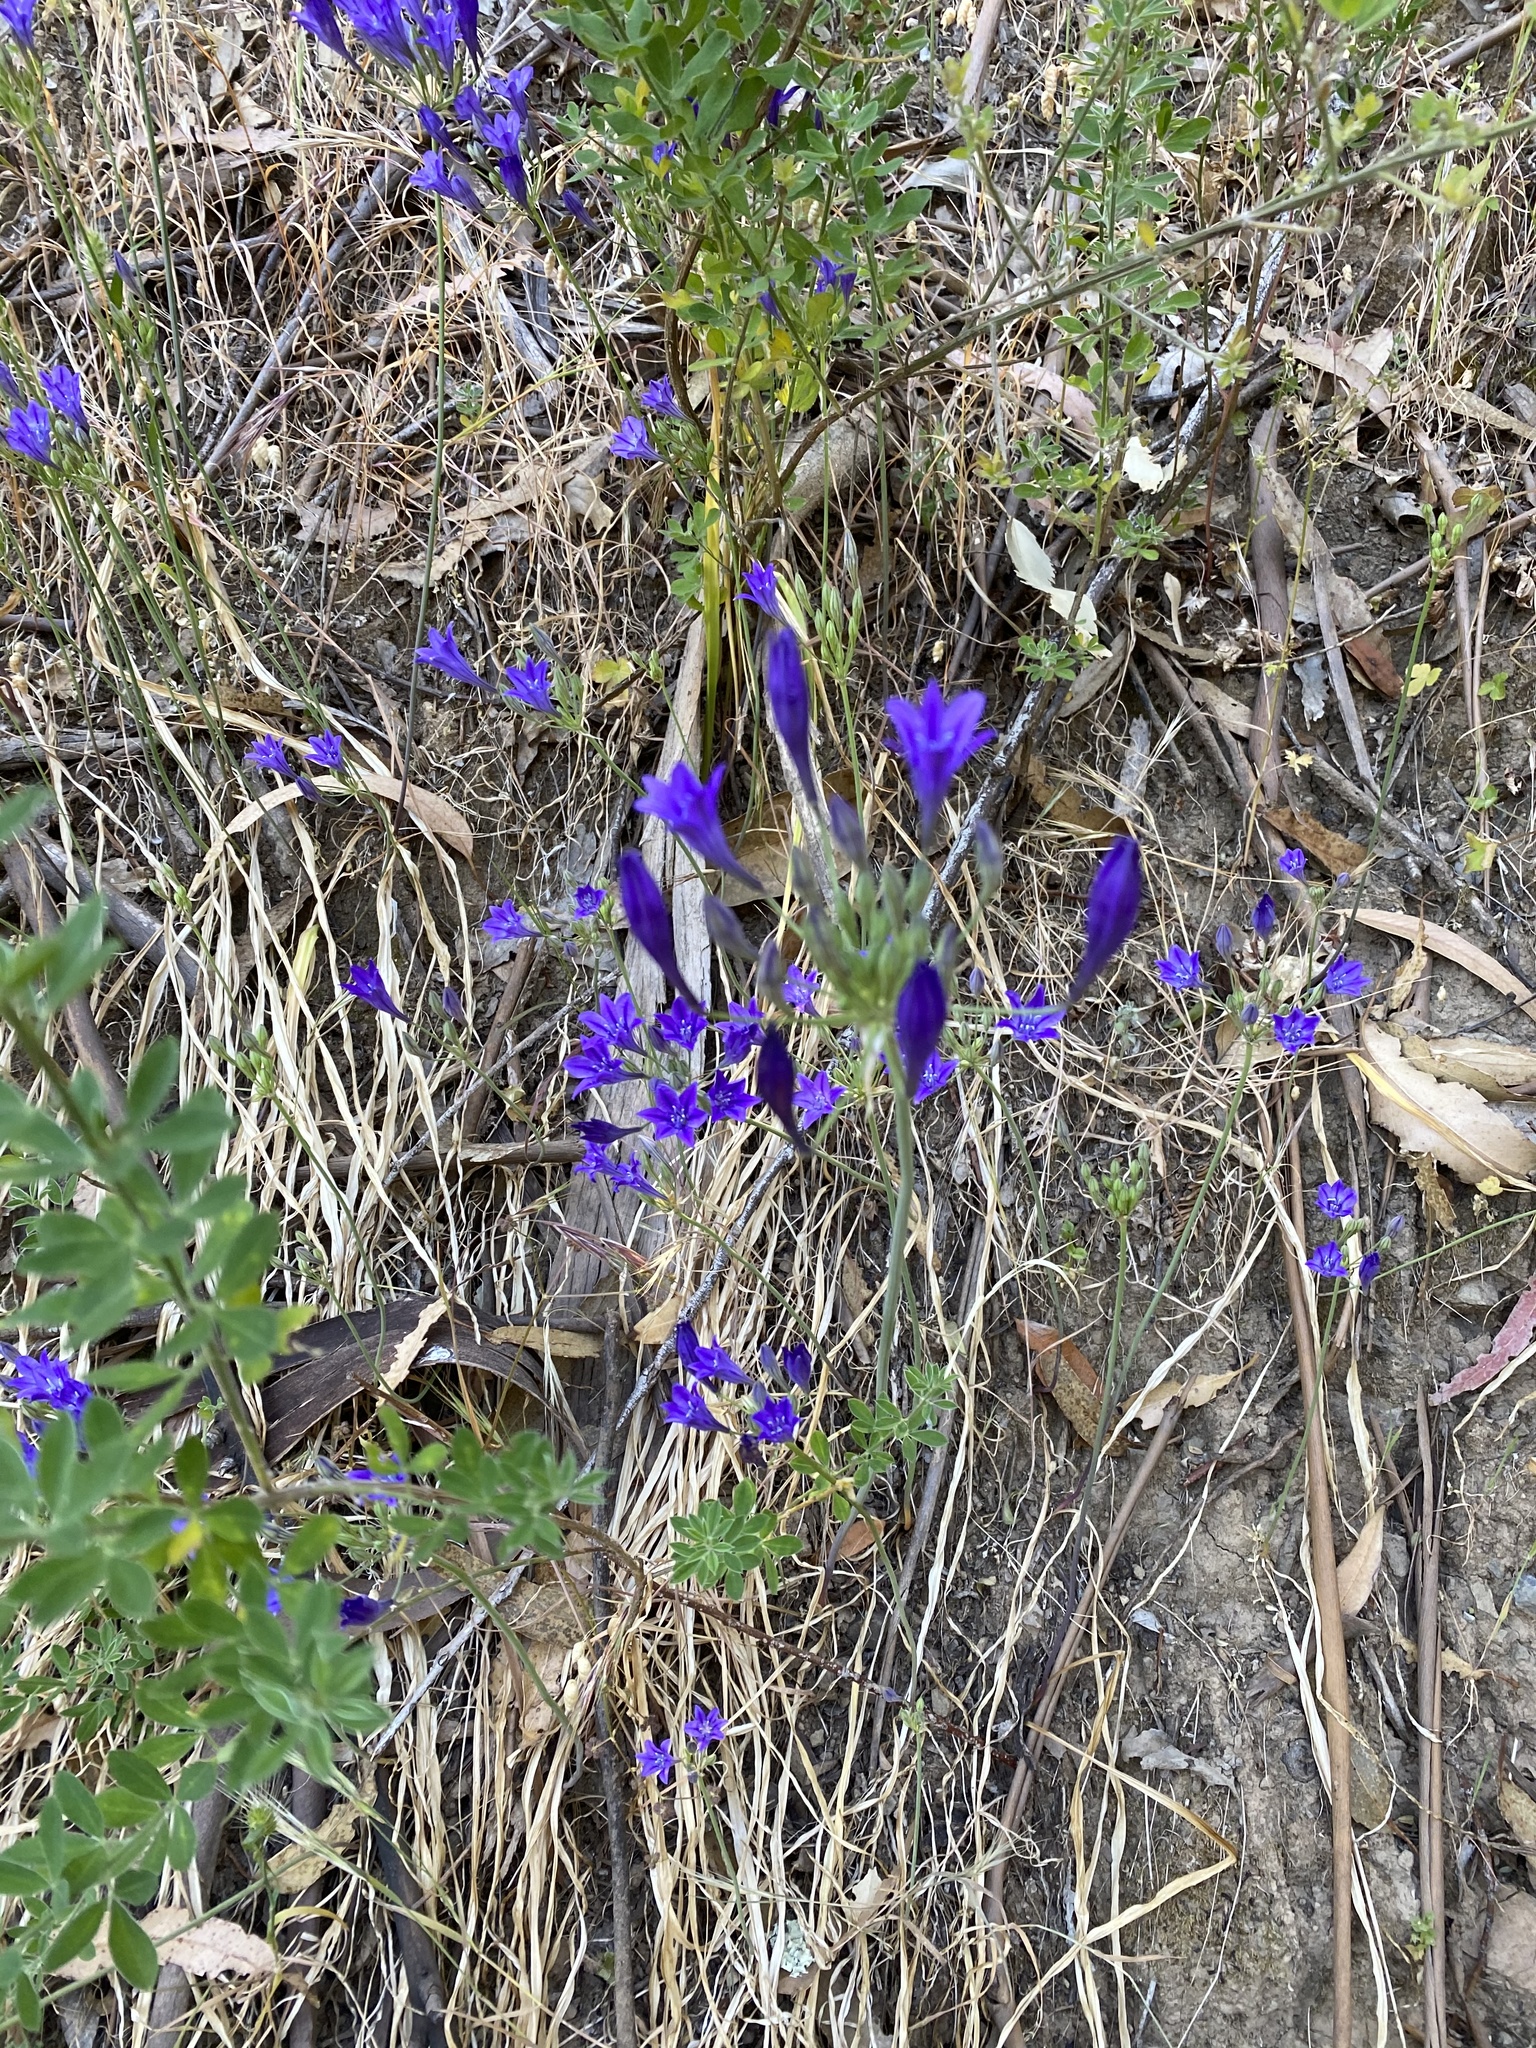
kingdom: Plantae
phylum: Tracheophyta
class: Liliopsida
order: Asparagales
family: Asparagaceae
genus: Triteleia
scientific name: Triteleia laxa
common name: Triplet-lily
